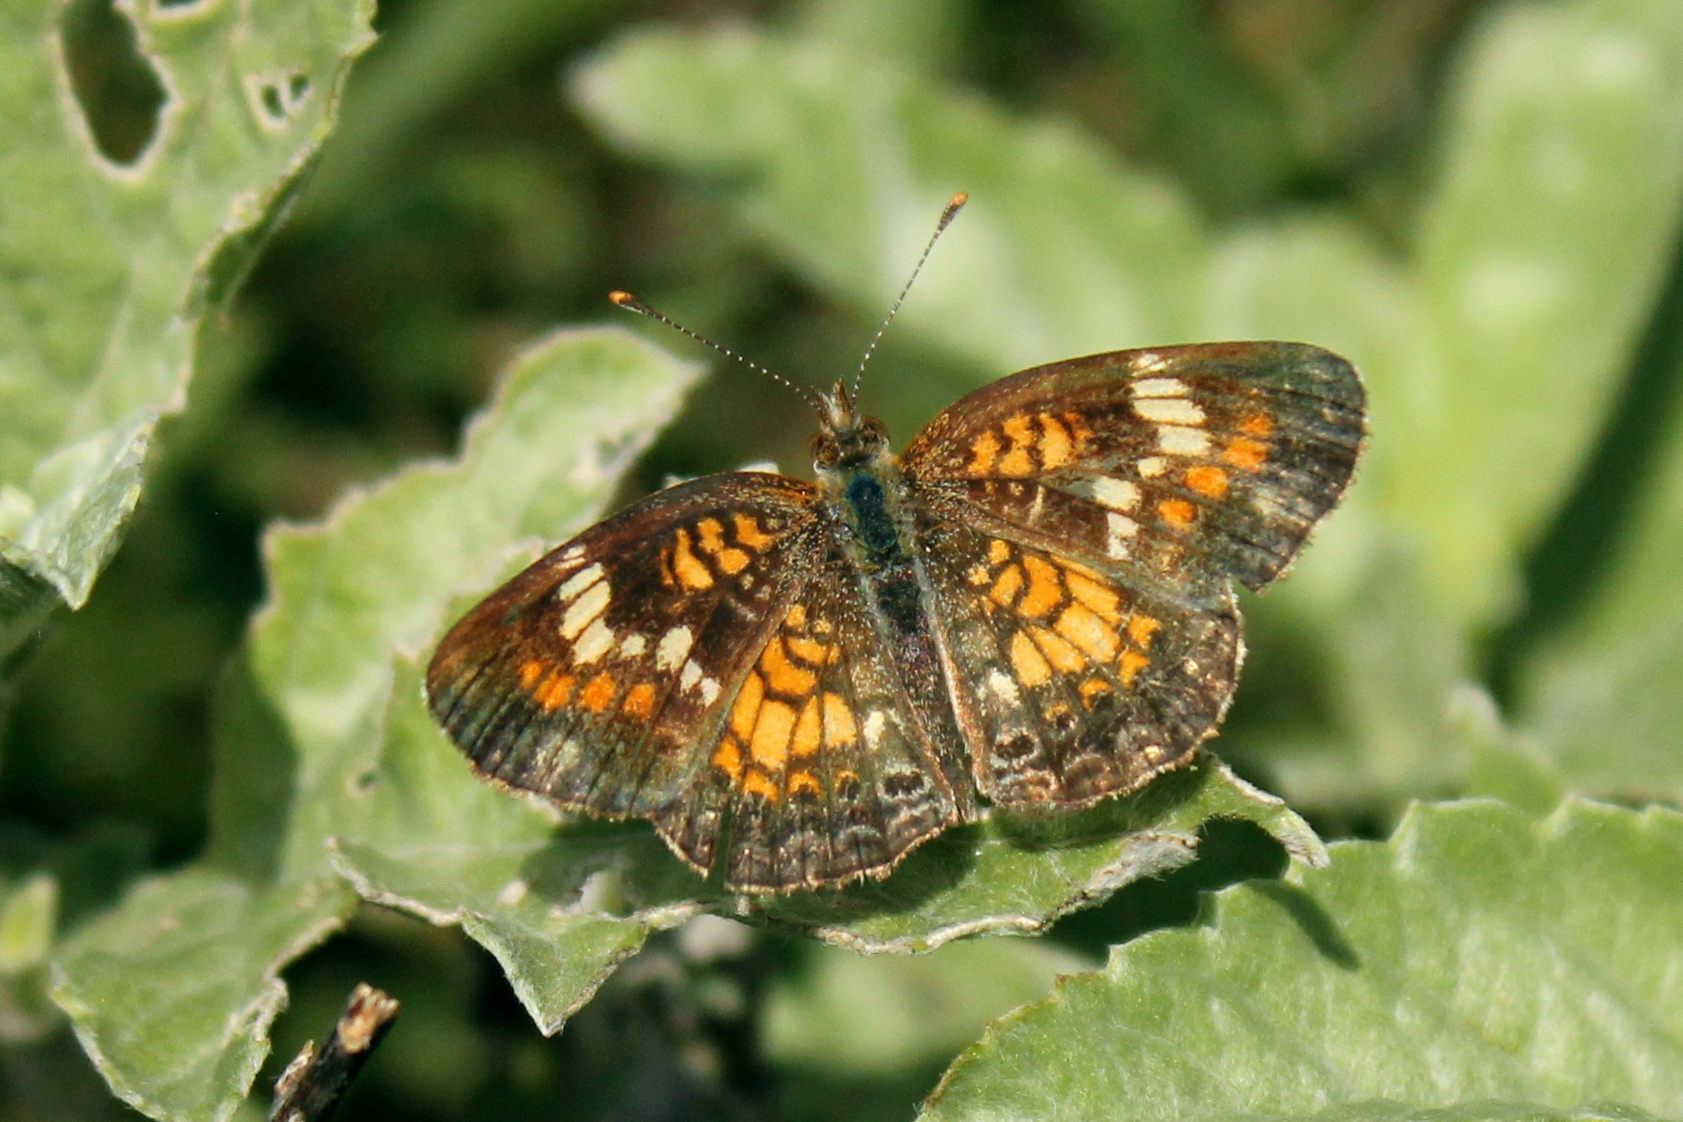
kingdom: Animalia
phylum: Arthropoda
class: Insecta
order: Lepidoptera
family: Nymphalidae
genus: Phyciodes
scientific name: Phyciodes phaon
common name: Phaon crescent
